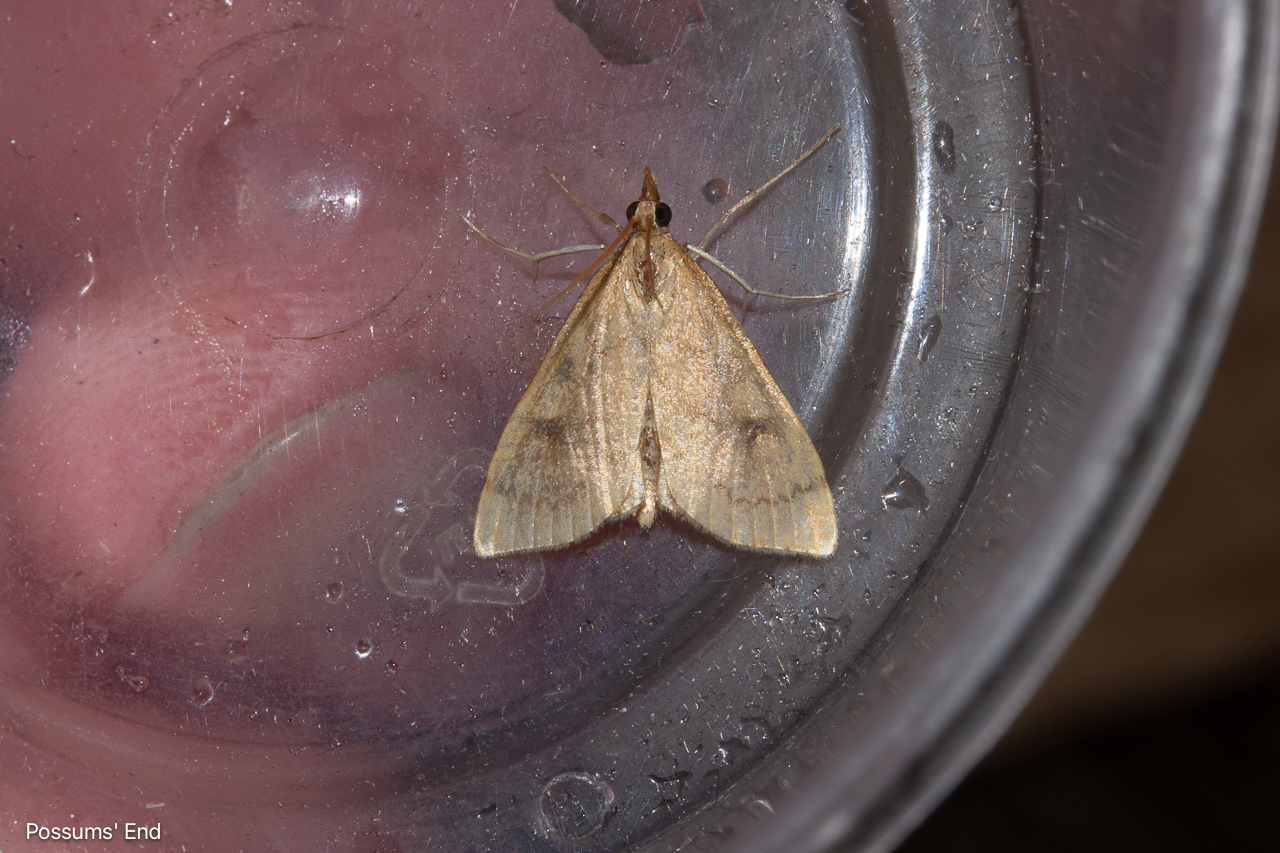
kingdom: Animalia
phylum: Arthropoda
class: Insecta
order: Lepidoptera
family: Crambidae
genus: Udea
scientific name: Udea Mnesictena flavidalis
